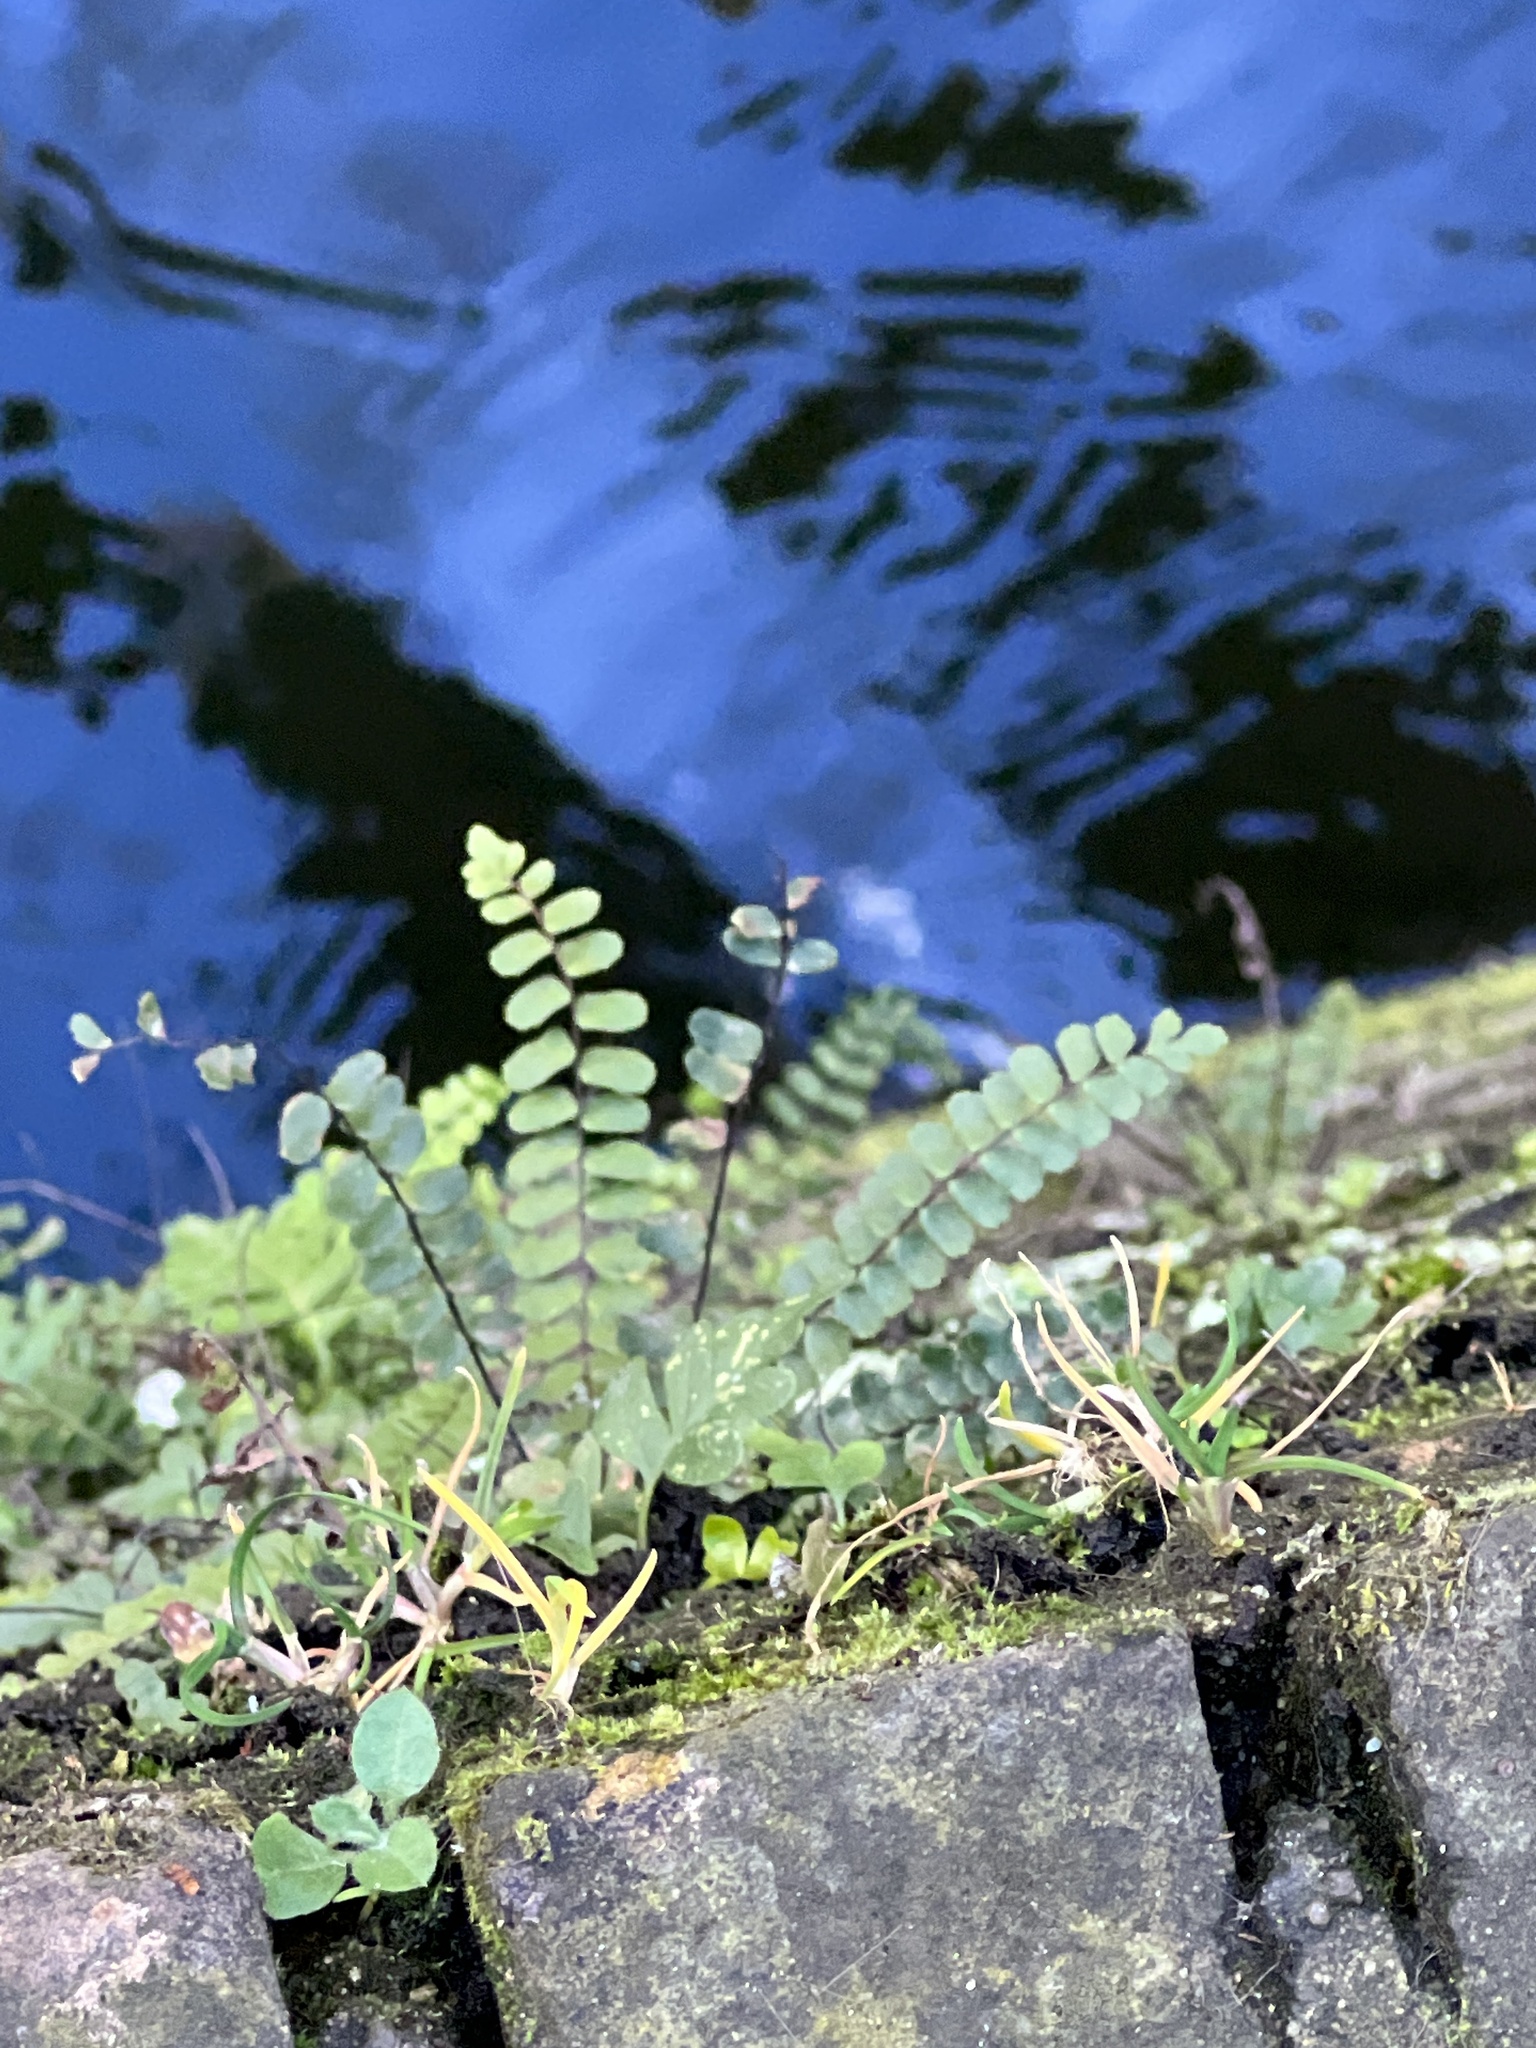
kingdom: Plantae
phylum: Tracheophyta
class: Polypodiopsida
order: Polypodiales
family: Aspleniaceae
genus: Asplenium
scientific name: Asplenium trichomanes
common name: Maidenhair spleenwort
